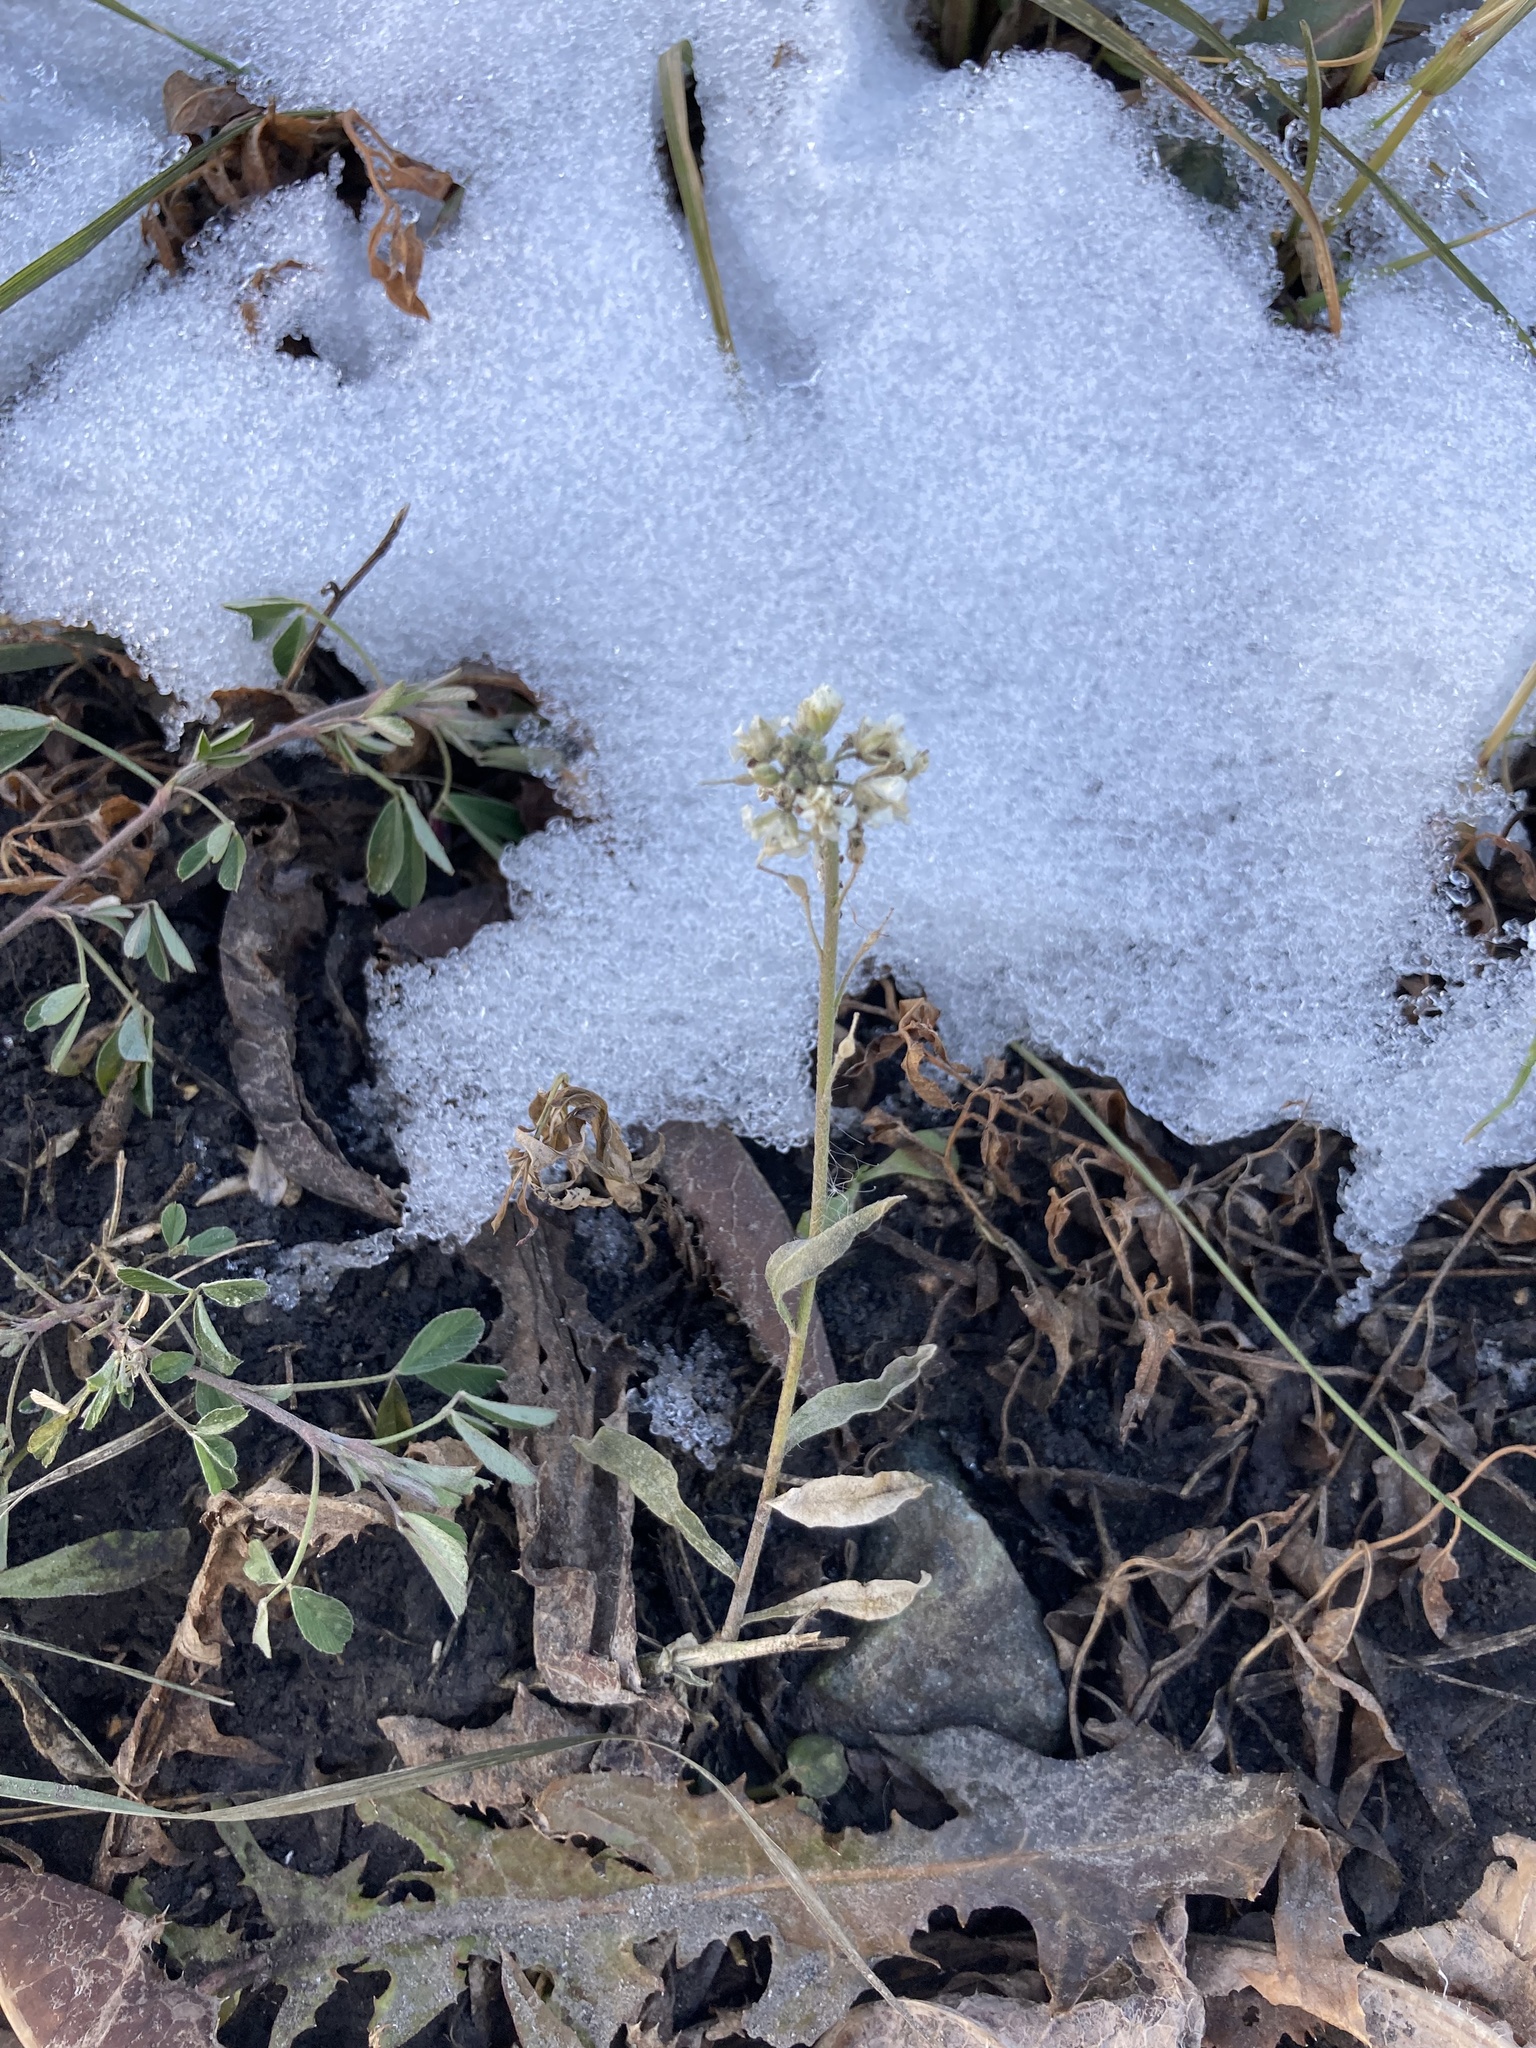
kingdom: Plantae
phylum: Tracheophyta
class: Magnoliopsida
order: Brassicales
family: Brassicaceae
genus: Berteroa
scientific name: Berteroa incana
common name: Hoary alison
